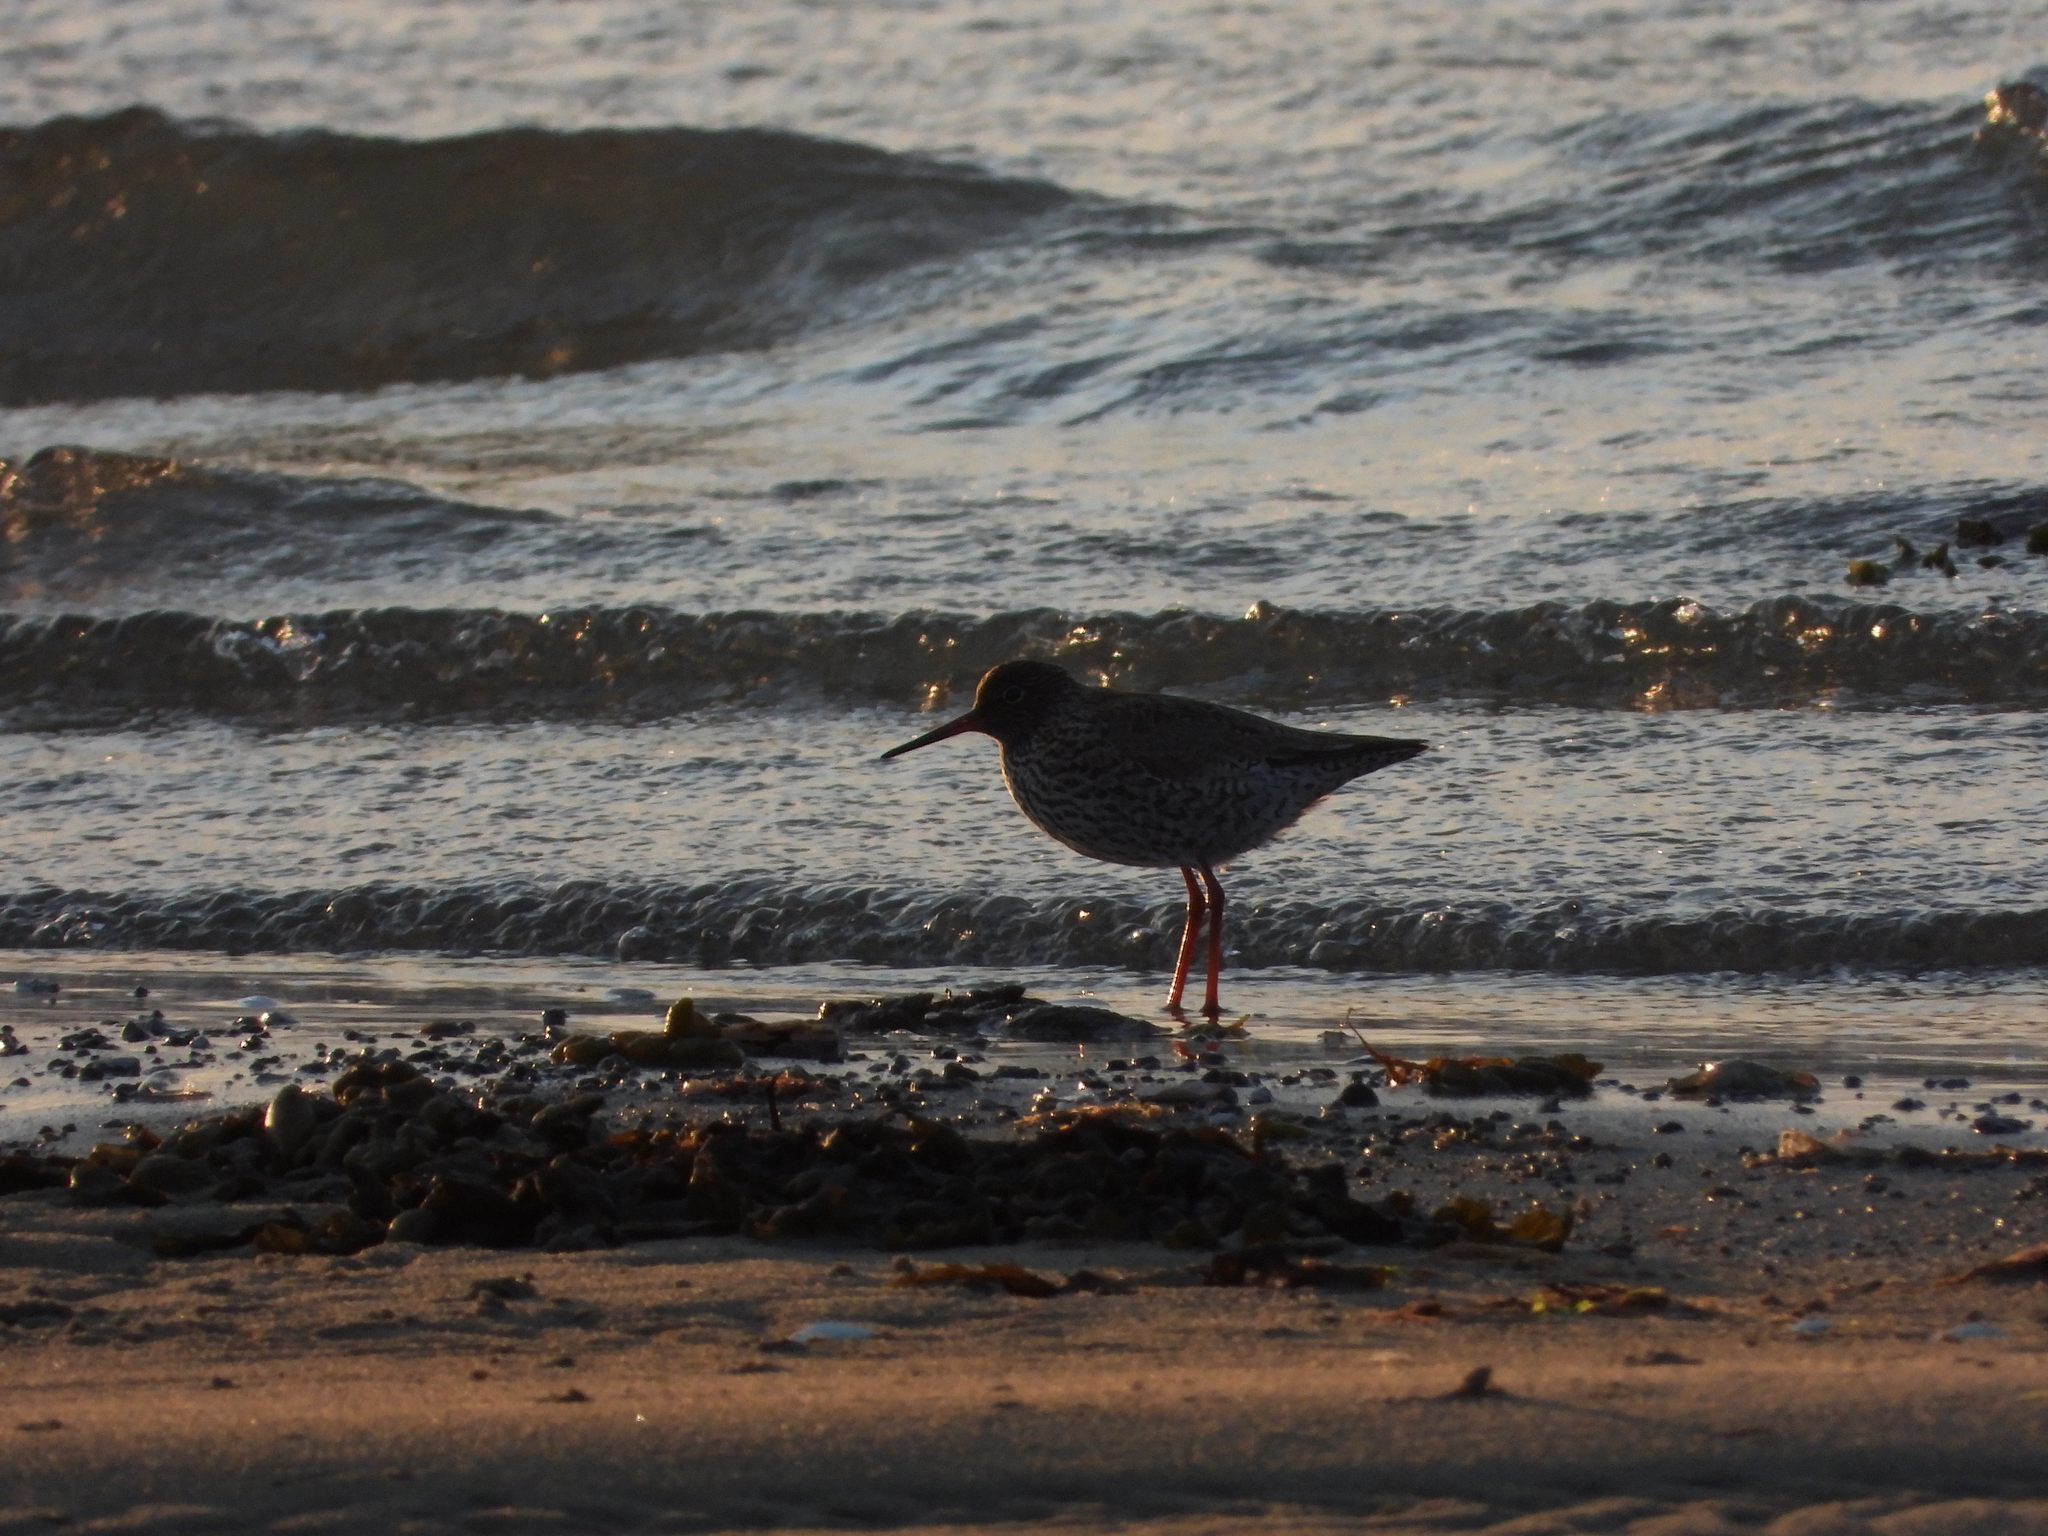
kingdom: Animalia
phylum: Chordata
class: Aves
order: Charadriiformes
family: Scolopacidae
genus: Tringa
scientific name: Tringa totanus
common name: Common redshank
